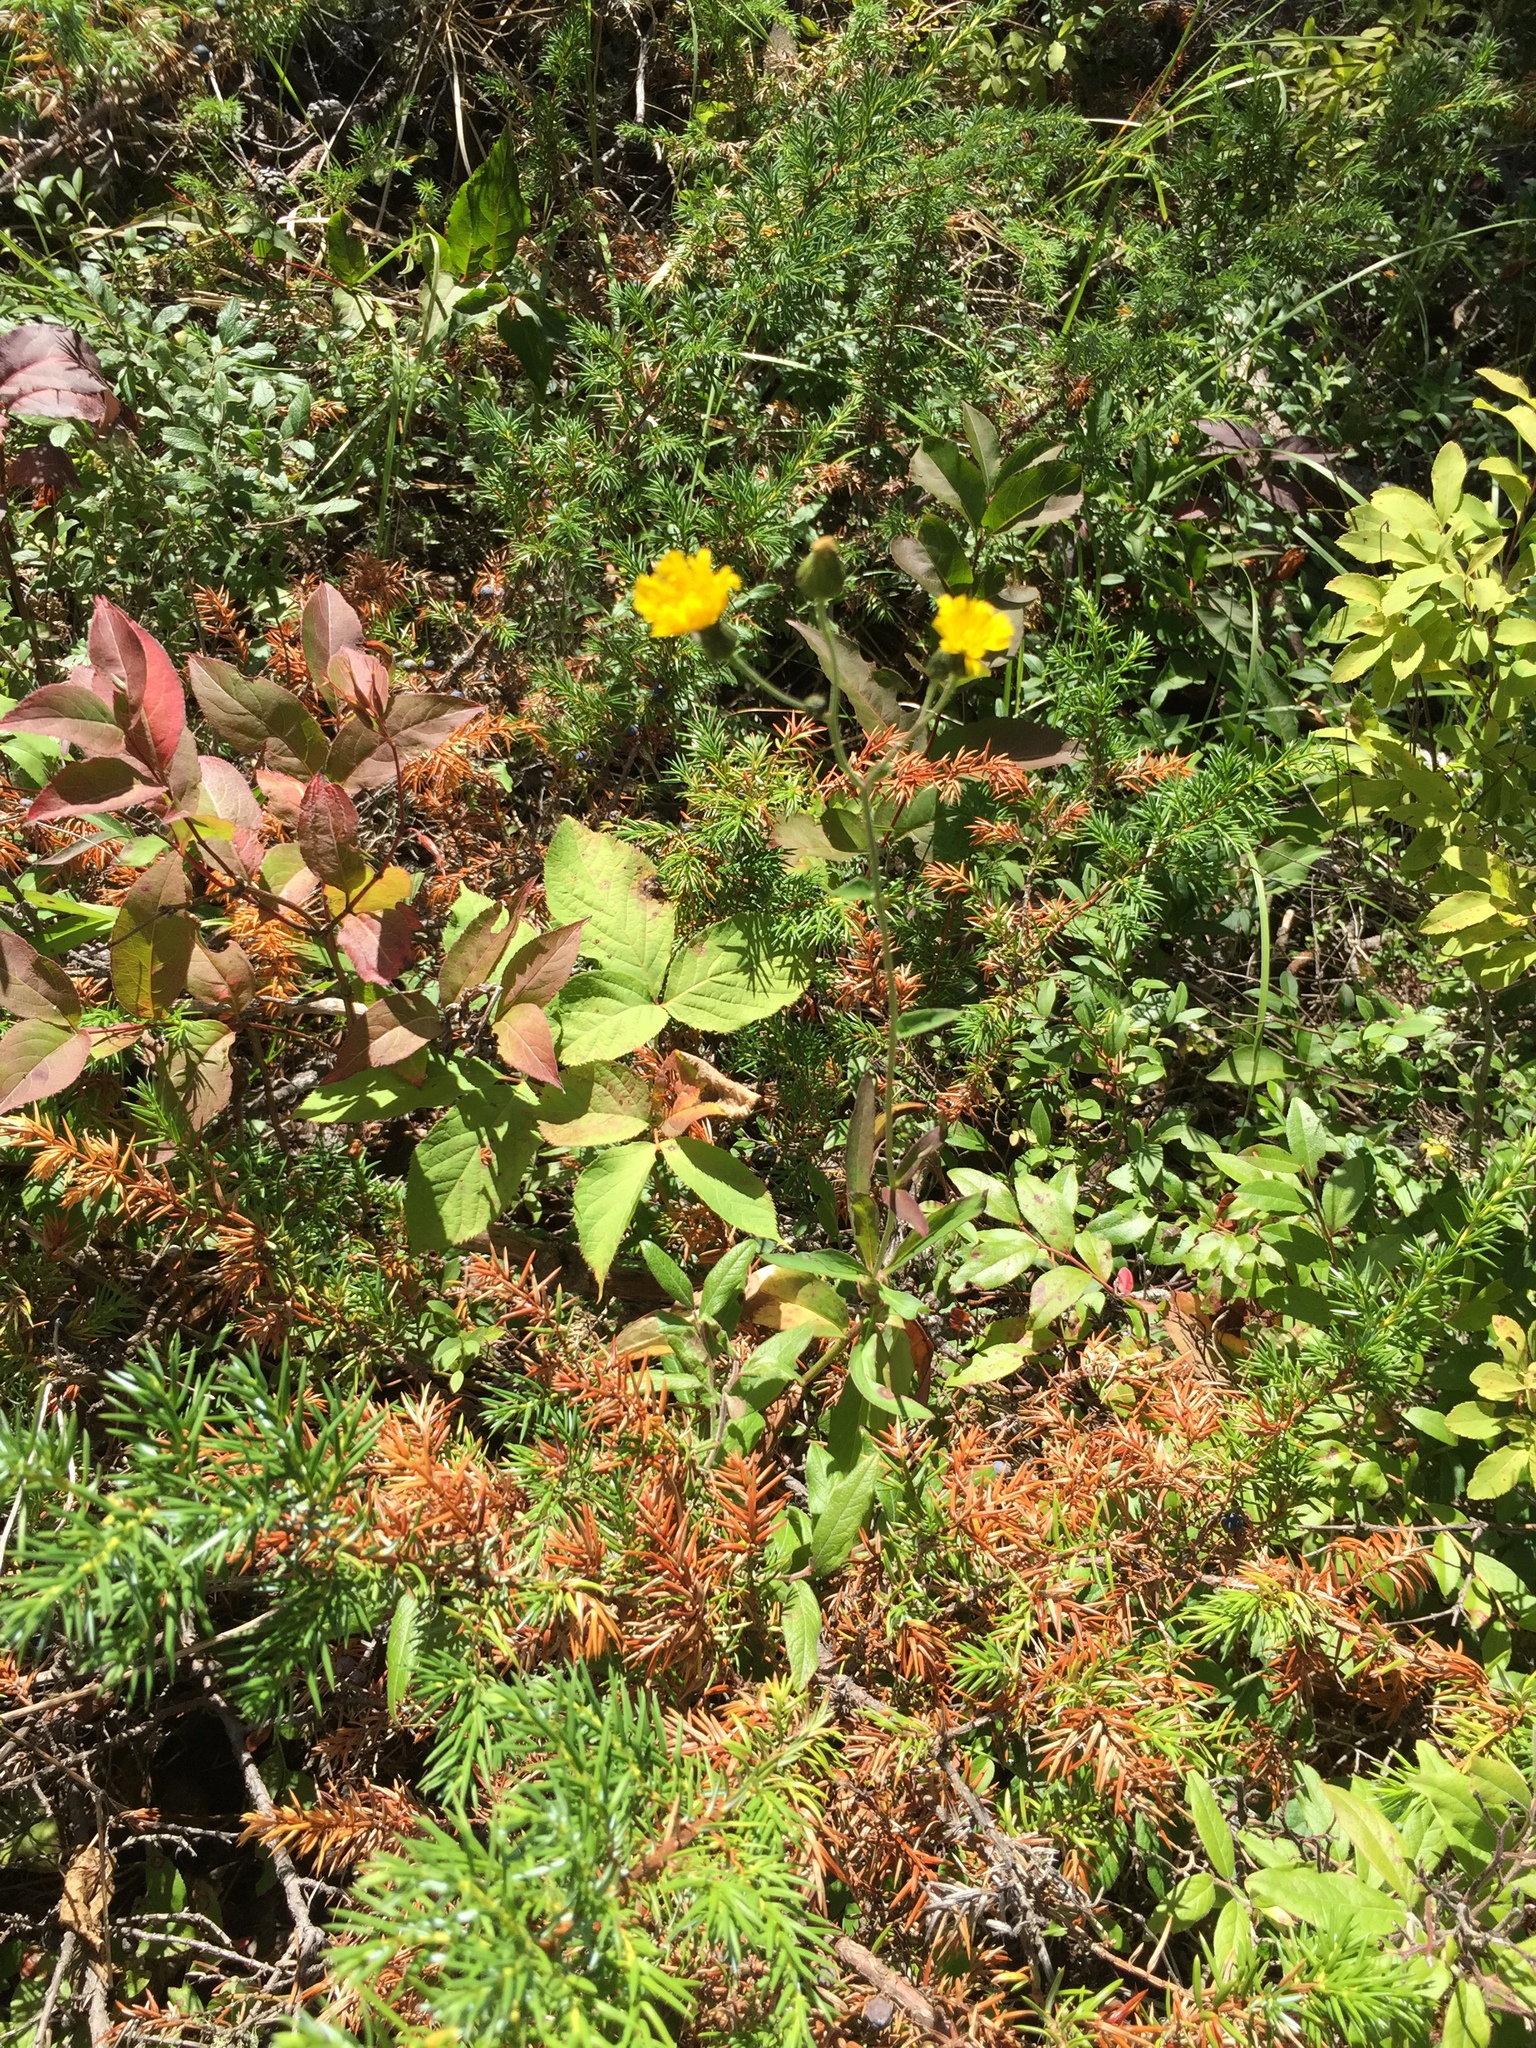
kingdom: Plantae
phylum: Tracheophyta
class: Magnoliopsida
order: Asterales
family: Asteraceae
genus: Hieracium
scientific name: Hieracium umbellatum
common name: Northern hawkweed
